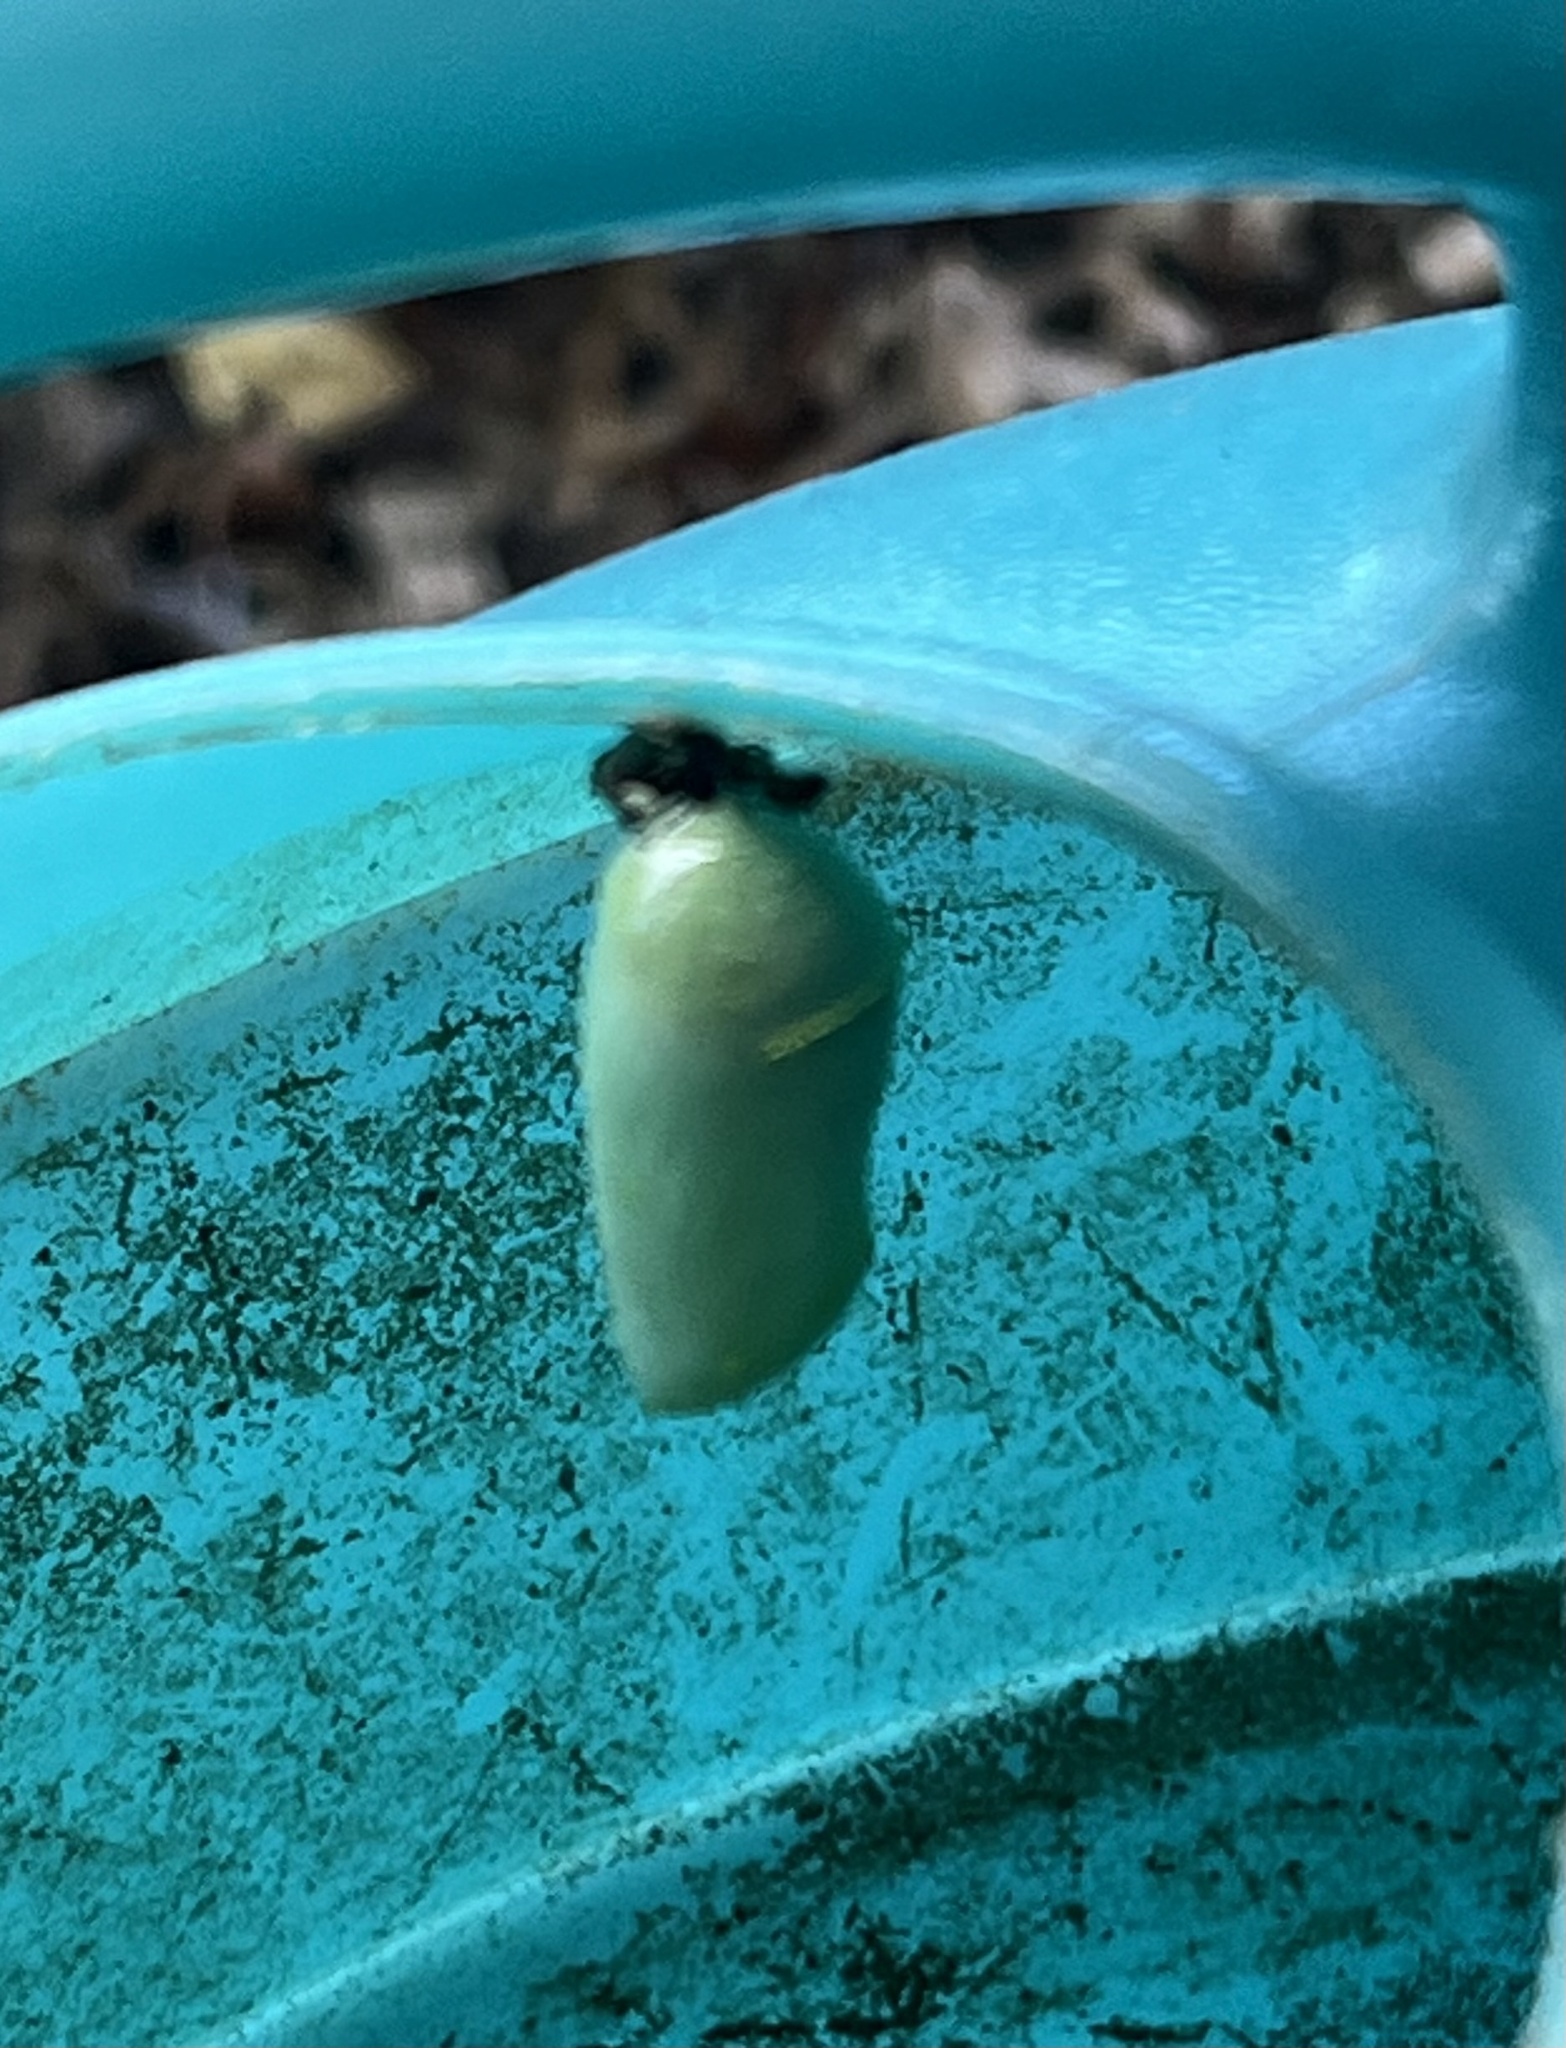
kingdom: Animalia
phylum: Arthropoda
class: Insecta
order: Lepidoptera
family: Nymphalidae
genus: Danaus
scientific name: Danaus plexippus
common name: Monarch
